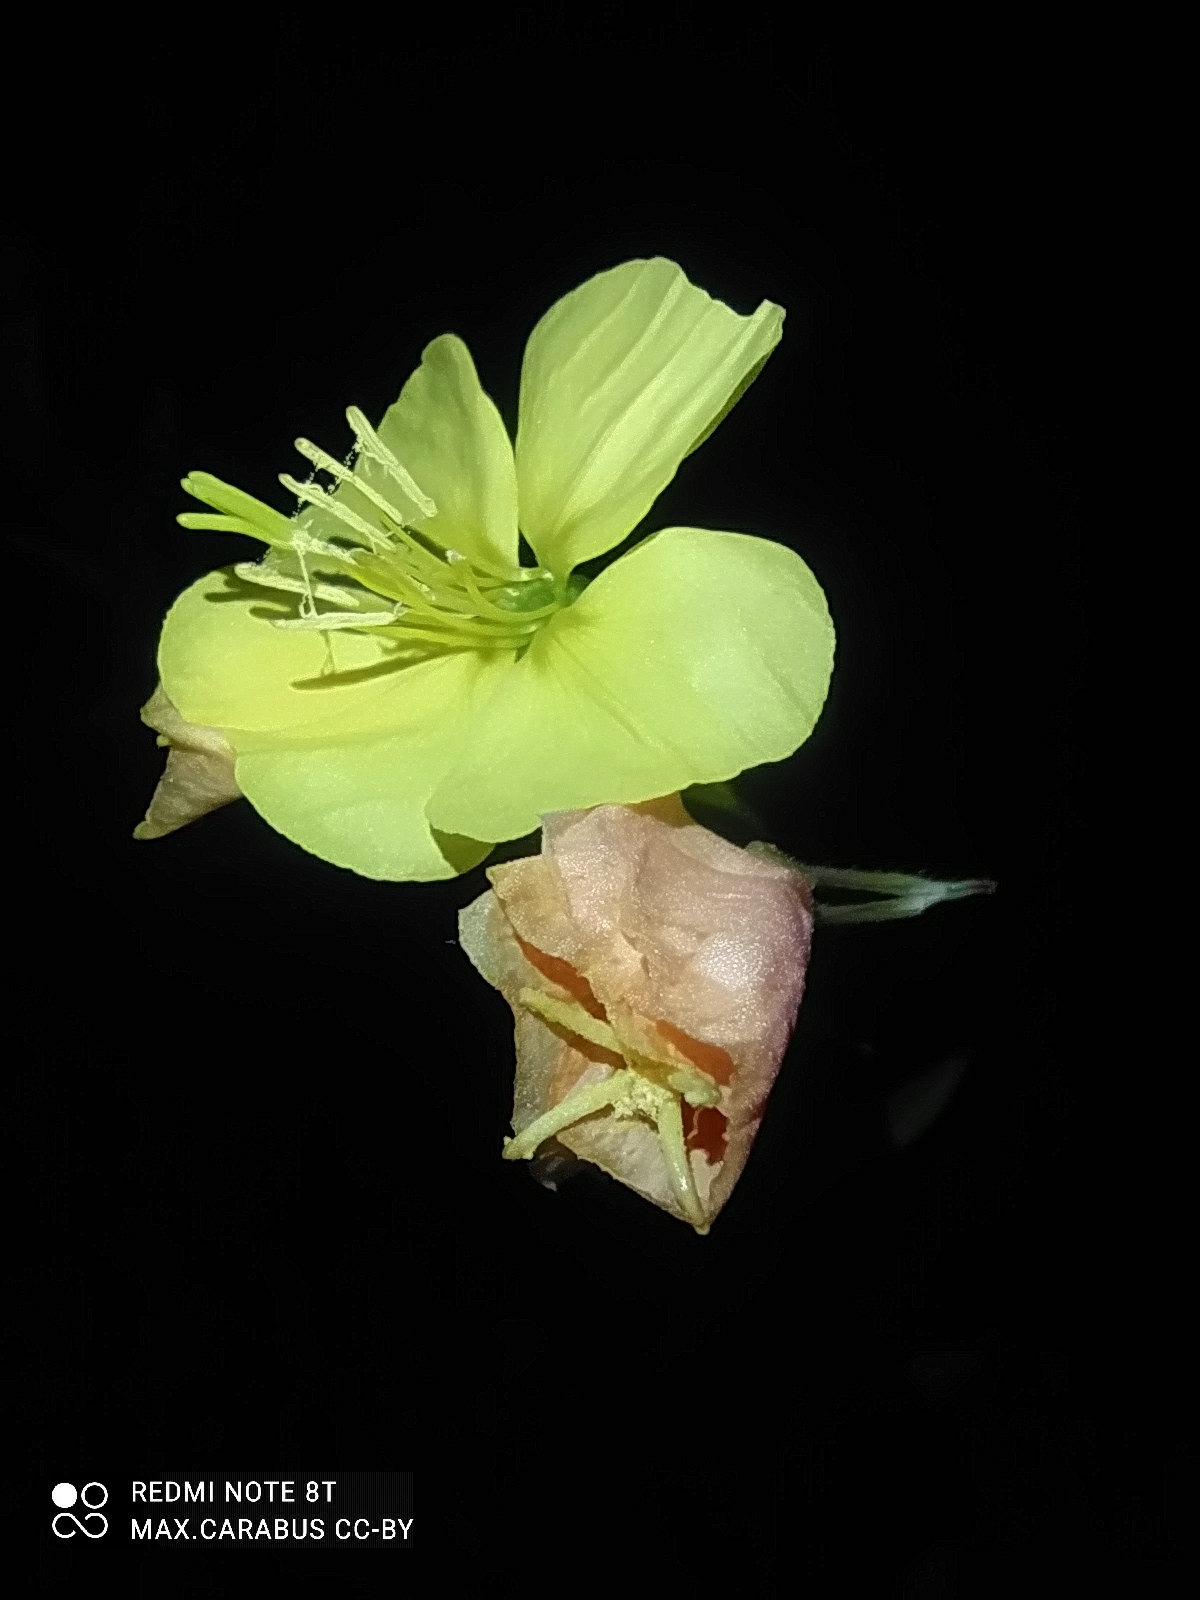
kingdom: Plantae
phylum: Tracheophyta
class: Magnoliopsida
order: Myrtales
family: Onagraceae
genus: Oenothera
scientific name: Oenothera biennis
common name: Common evening-primrose
